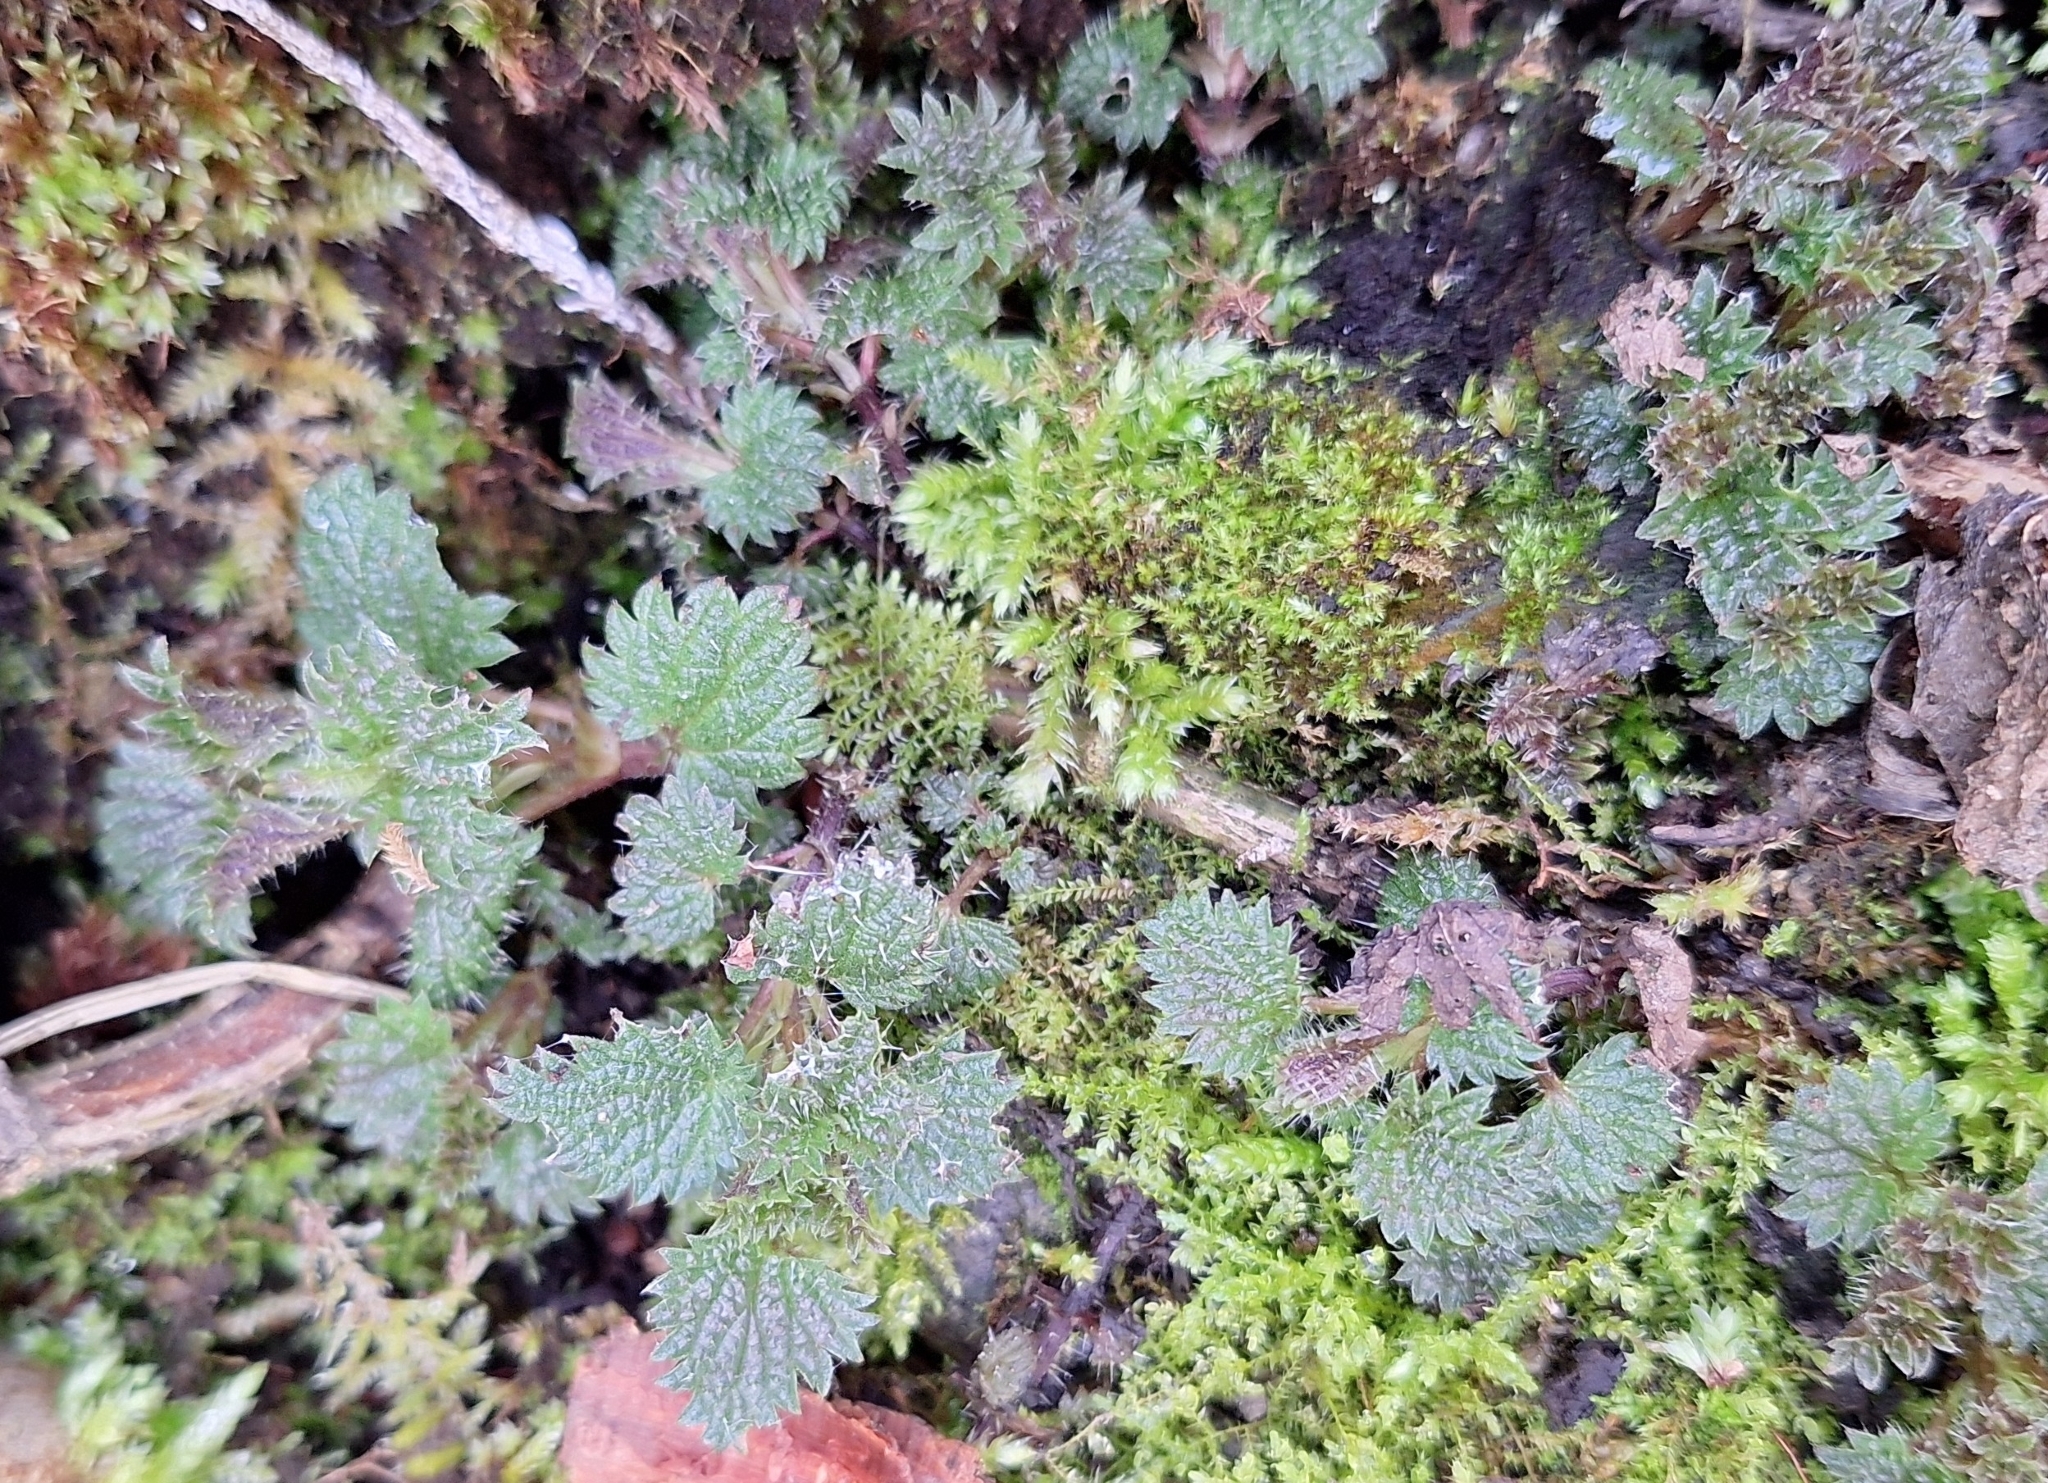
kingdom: Plantae
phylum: Tracheophyta
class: Magnoliopsida
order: Rosales
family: Urticaceae
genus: Urtica
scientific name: Urtica dioica
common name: Common nettle
